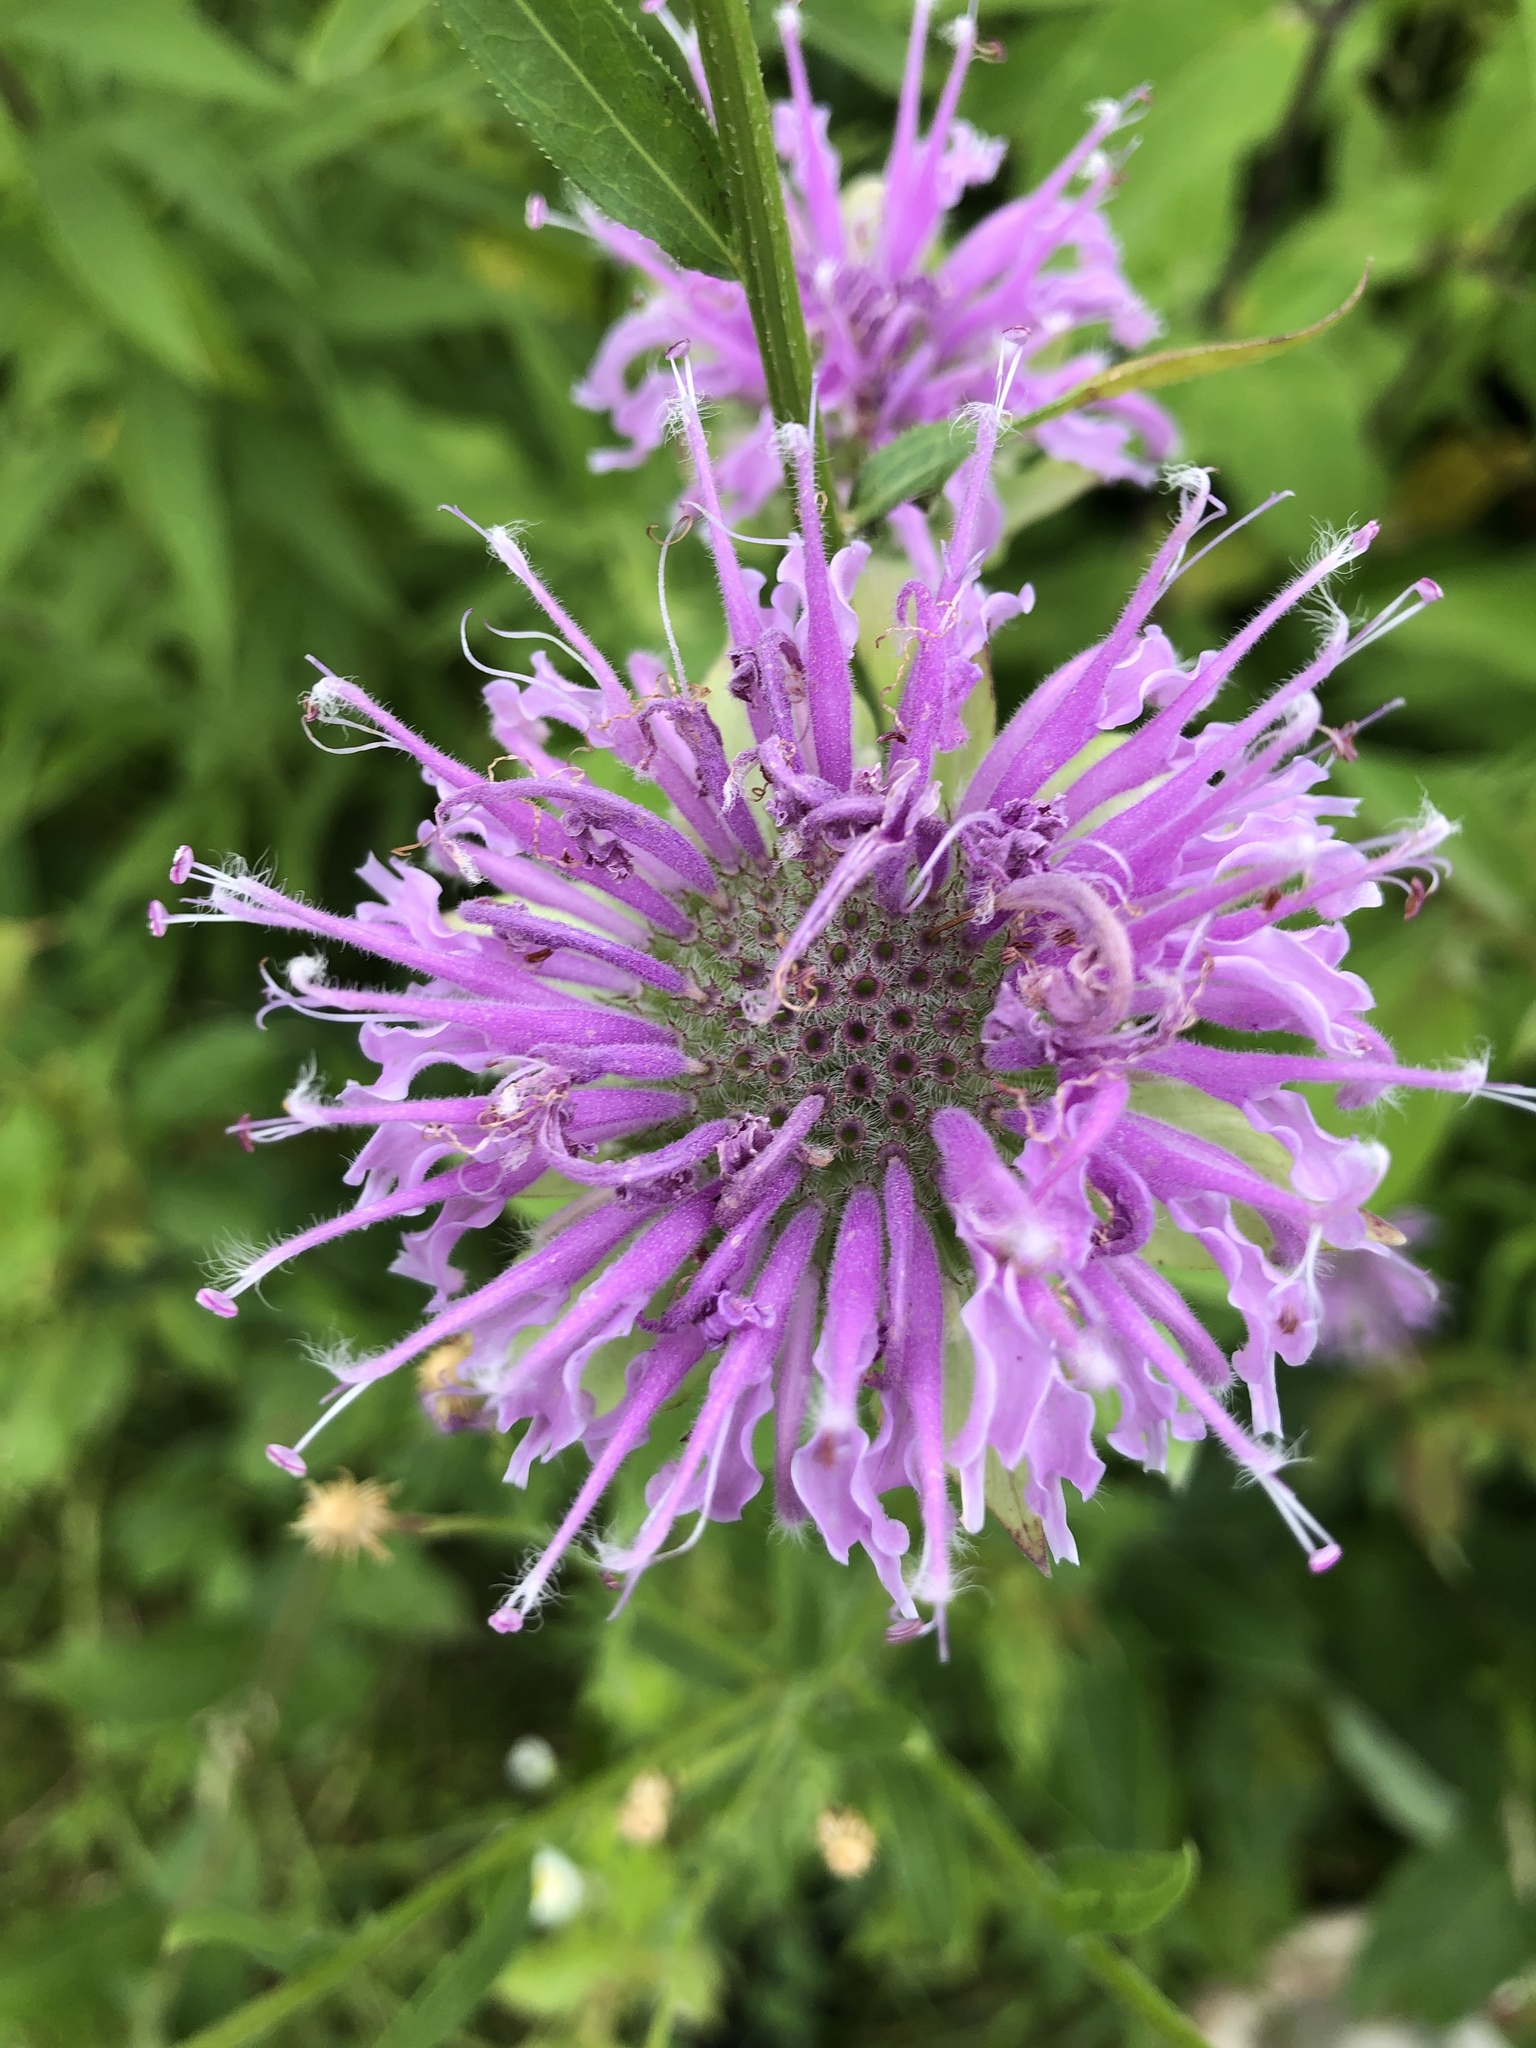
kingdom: Plantae
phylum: Tracheophyta
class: Magnoliopsida
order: Lamiales
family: Lamiaceae
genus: Monarda
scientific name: Monarda fistulosa
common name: Purple beebalm
